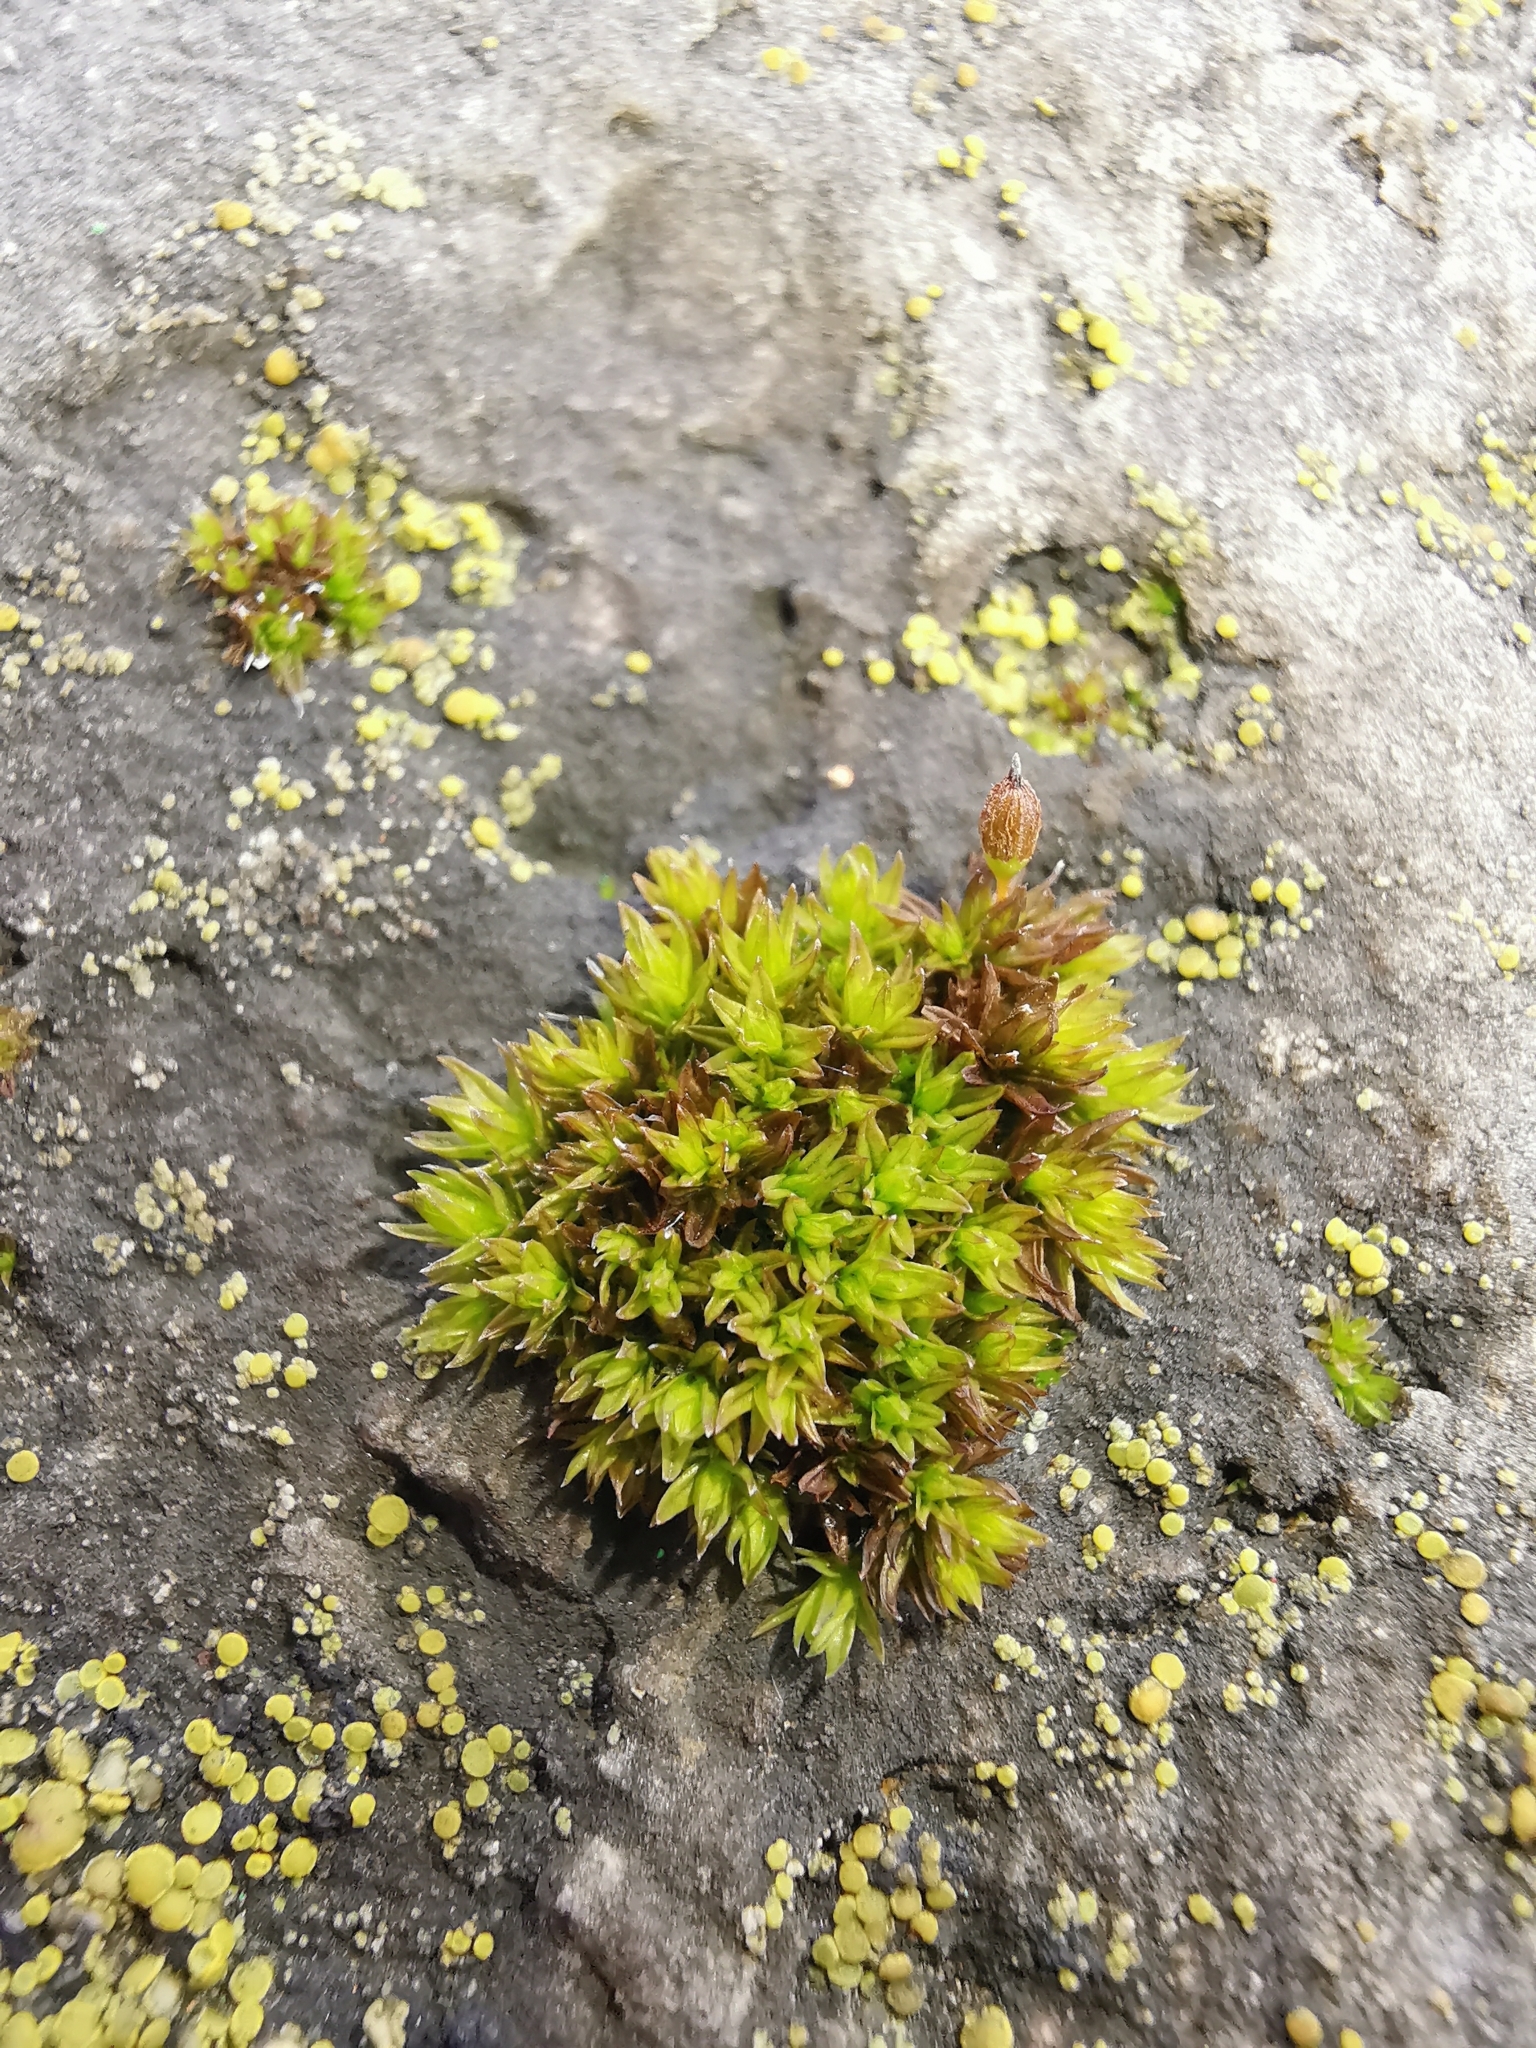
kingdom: Plantae
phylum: Bryophyta
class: Bryopsida
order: Orthotrichales
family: Orthotrichaceae
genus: Orthotrichum
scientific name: Orthotrichum anomalum
